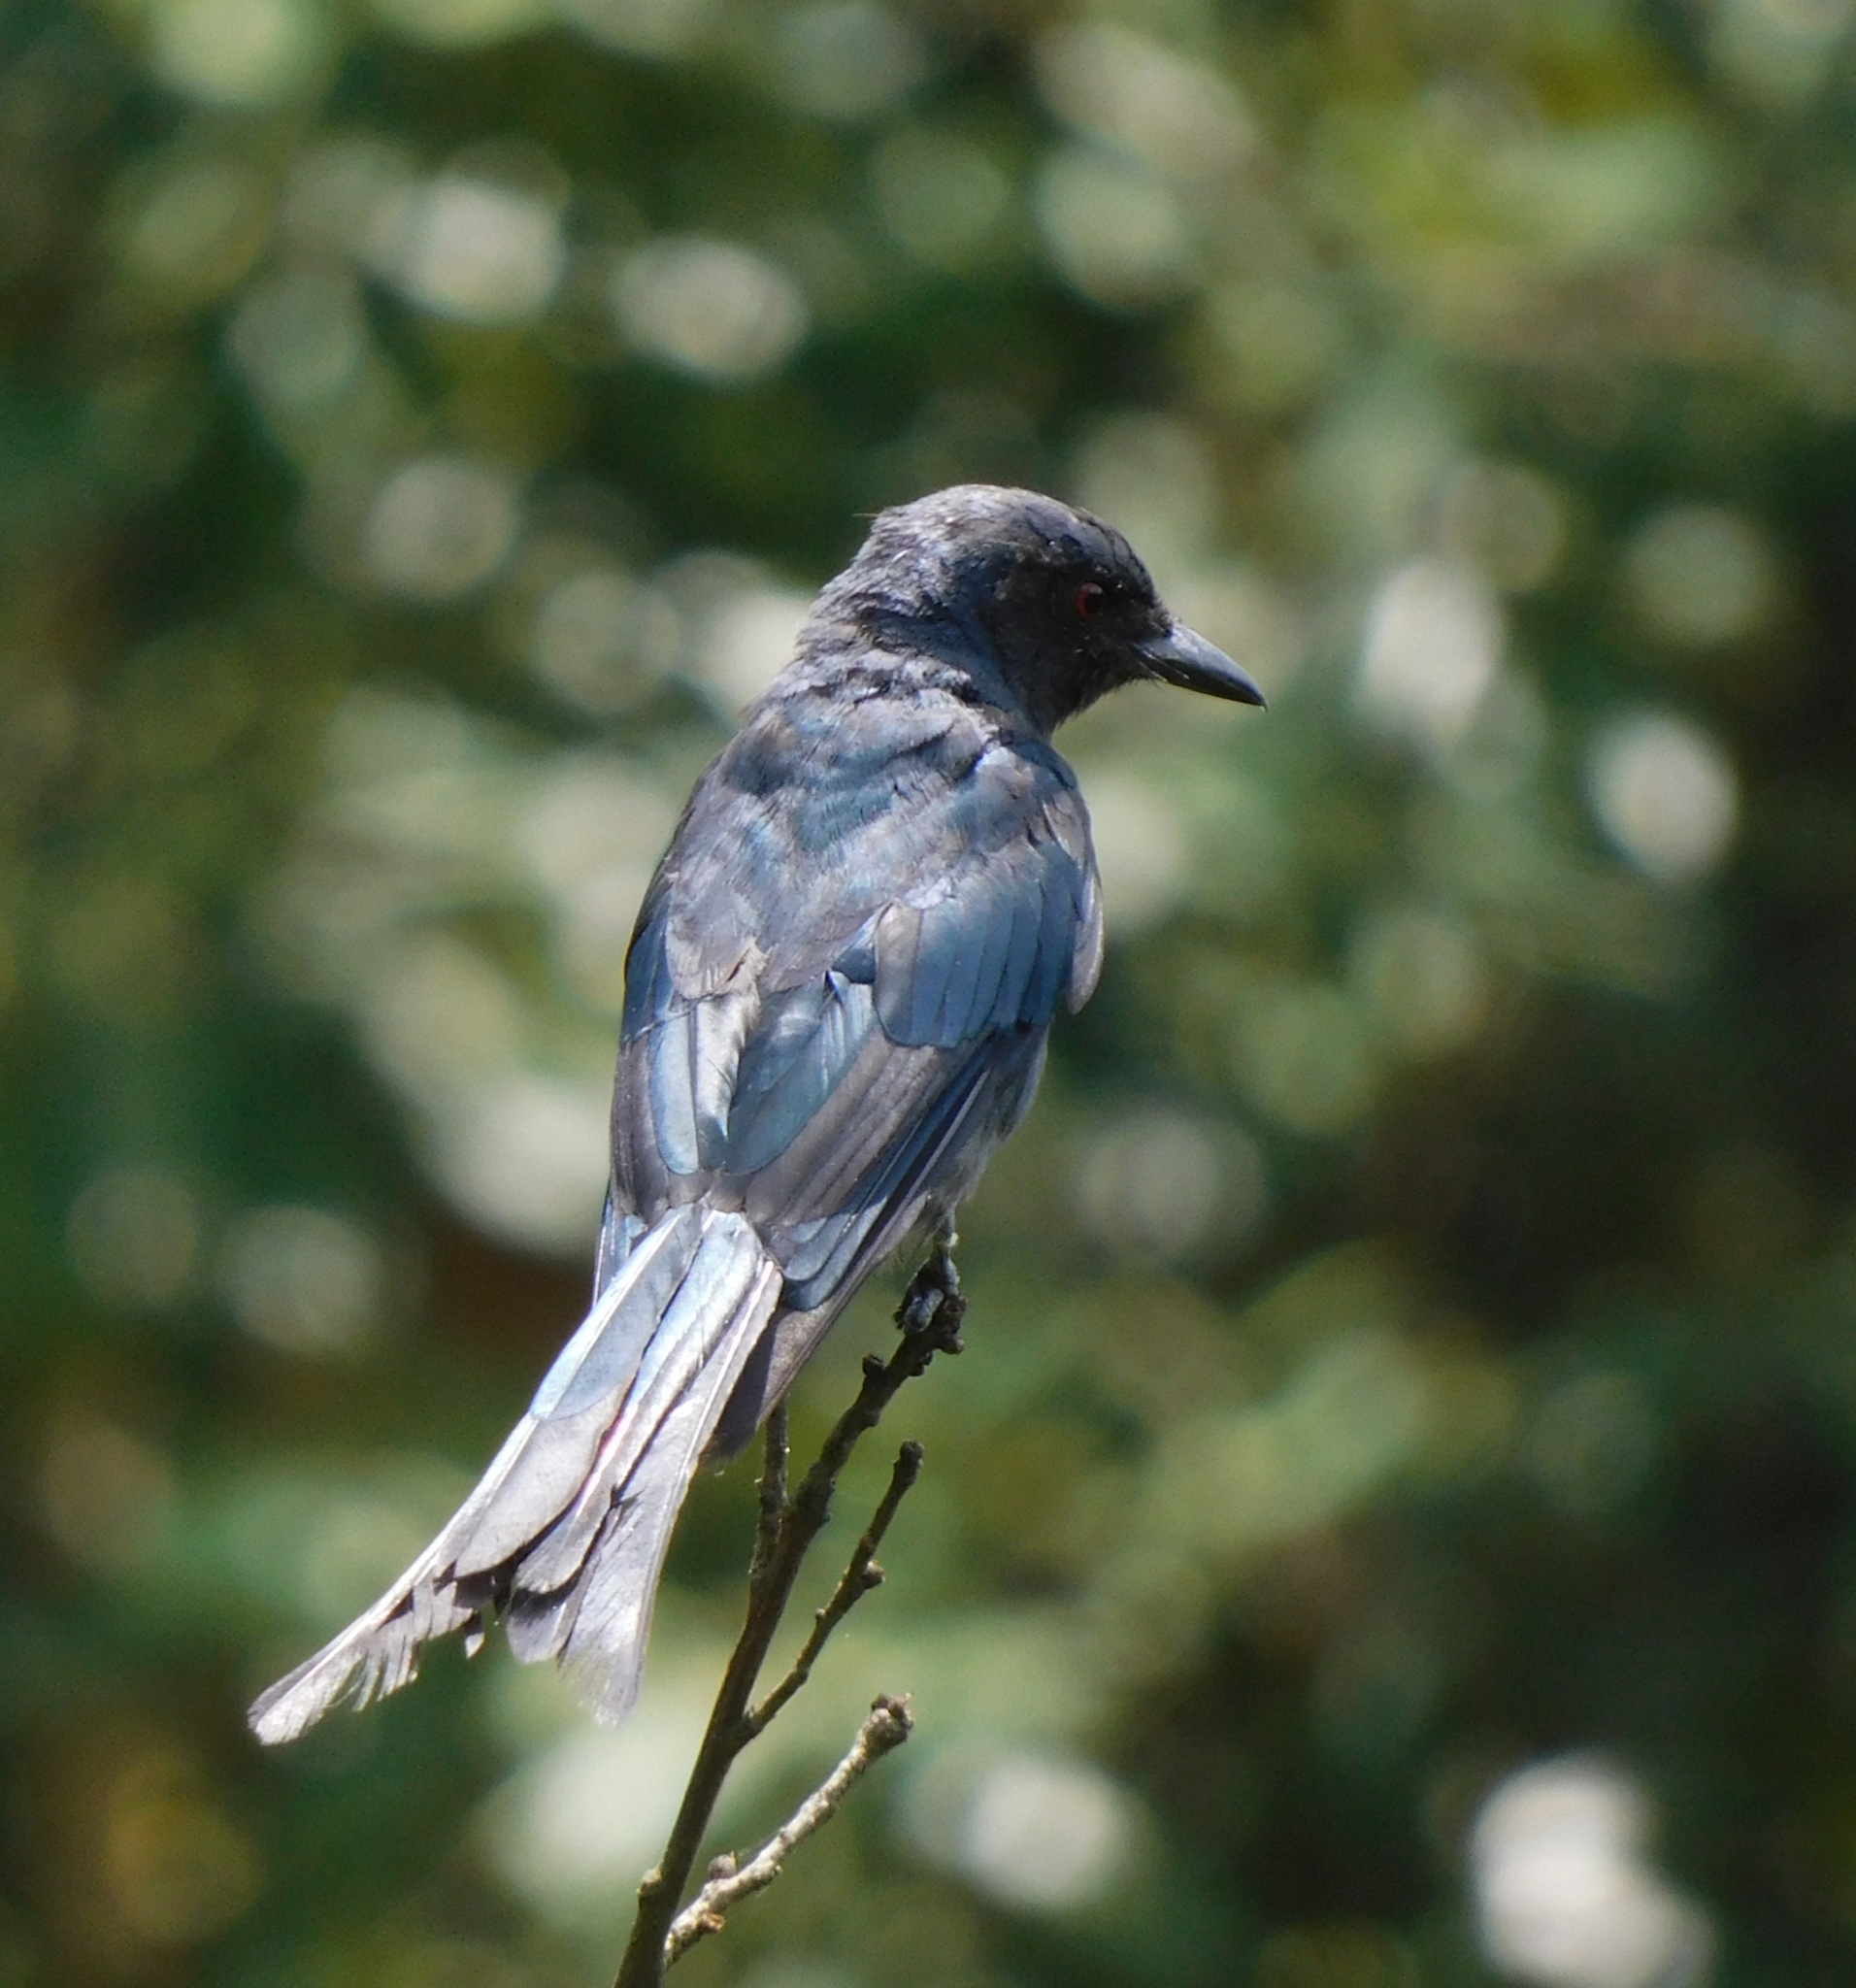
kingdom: Animalia
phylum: Chordata
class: Aves
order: Passeriformes
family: Dicruridae
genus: Dicrurus
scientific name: Dicrurus leucophaeus
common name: Ashy drongo
